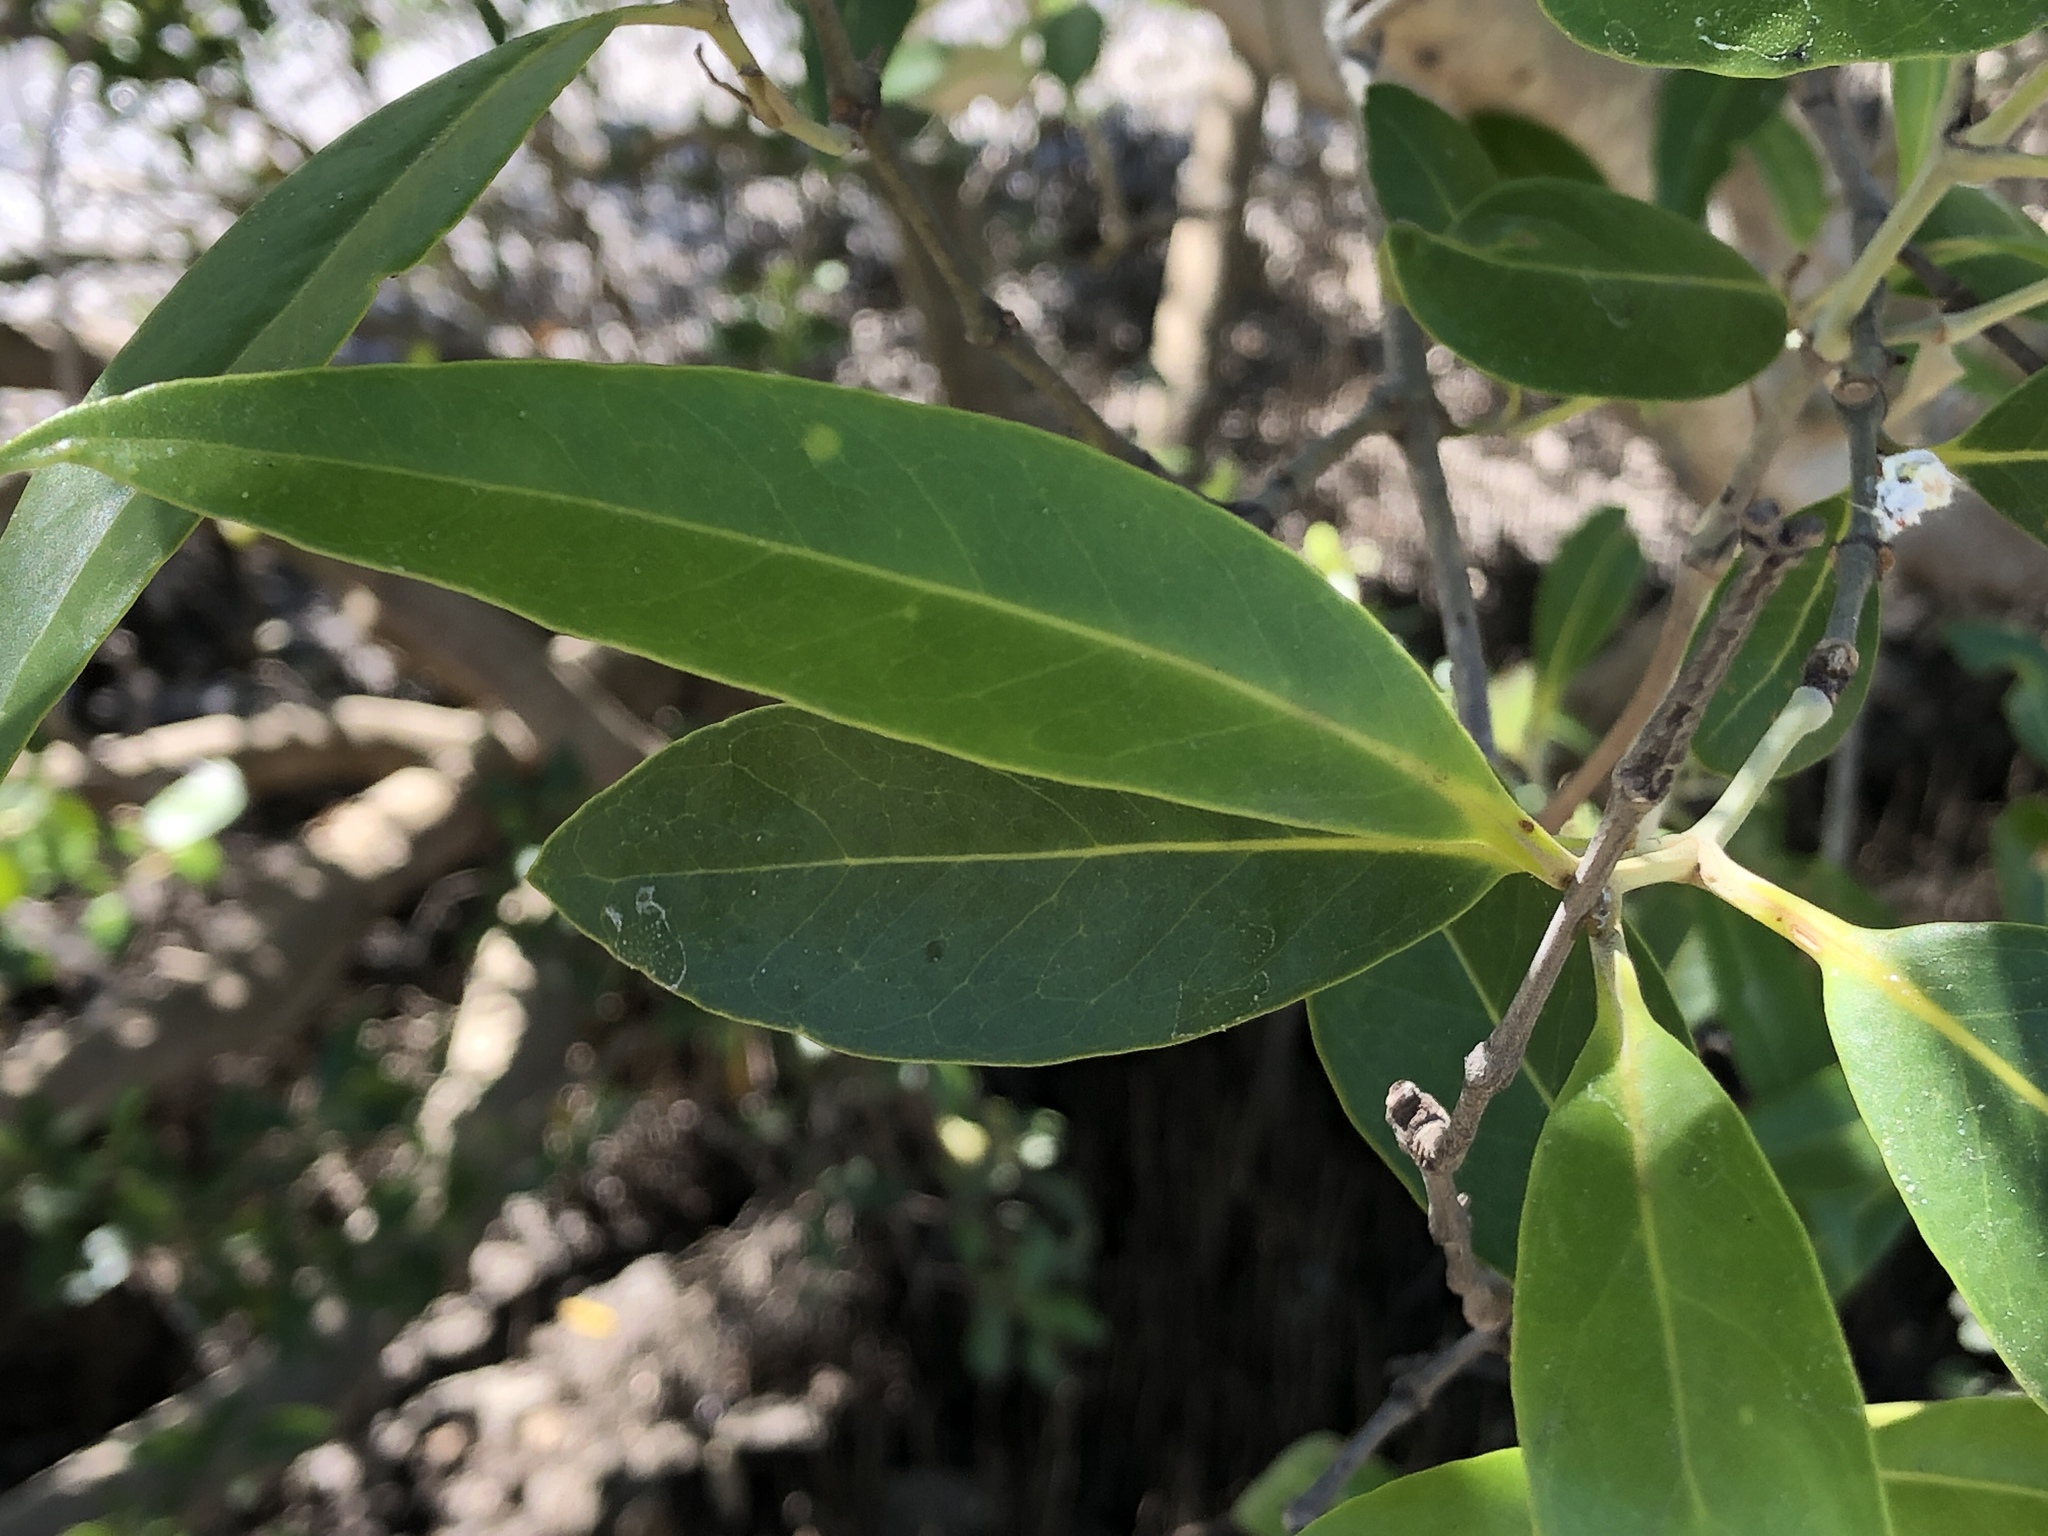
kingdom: Plantae
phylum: Tracheophyta
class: Magnoliopsida
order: Lamiales
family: Acanthaceae
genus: Avicennia
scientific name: Avicennia marina
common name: Gray mangrove
